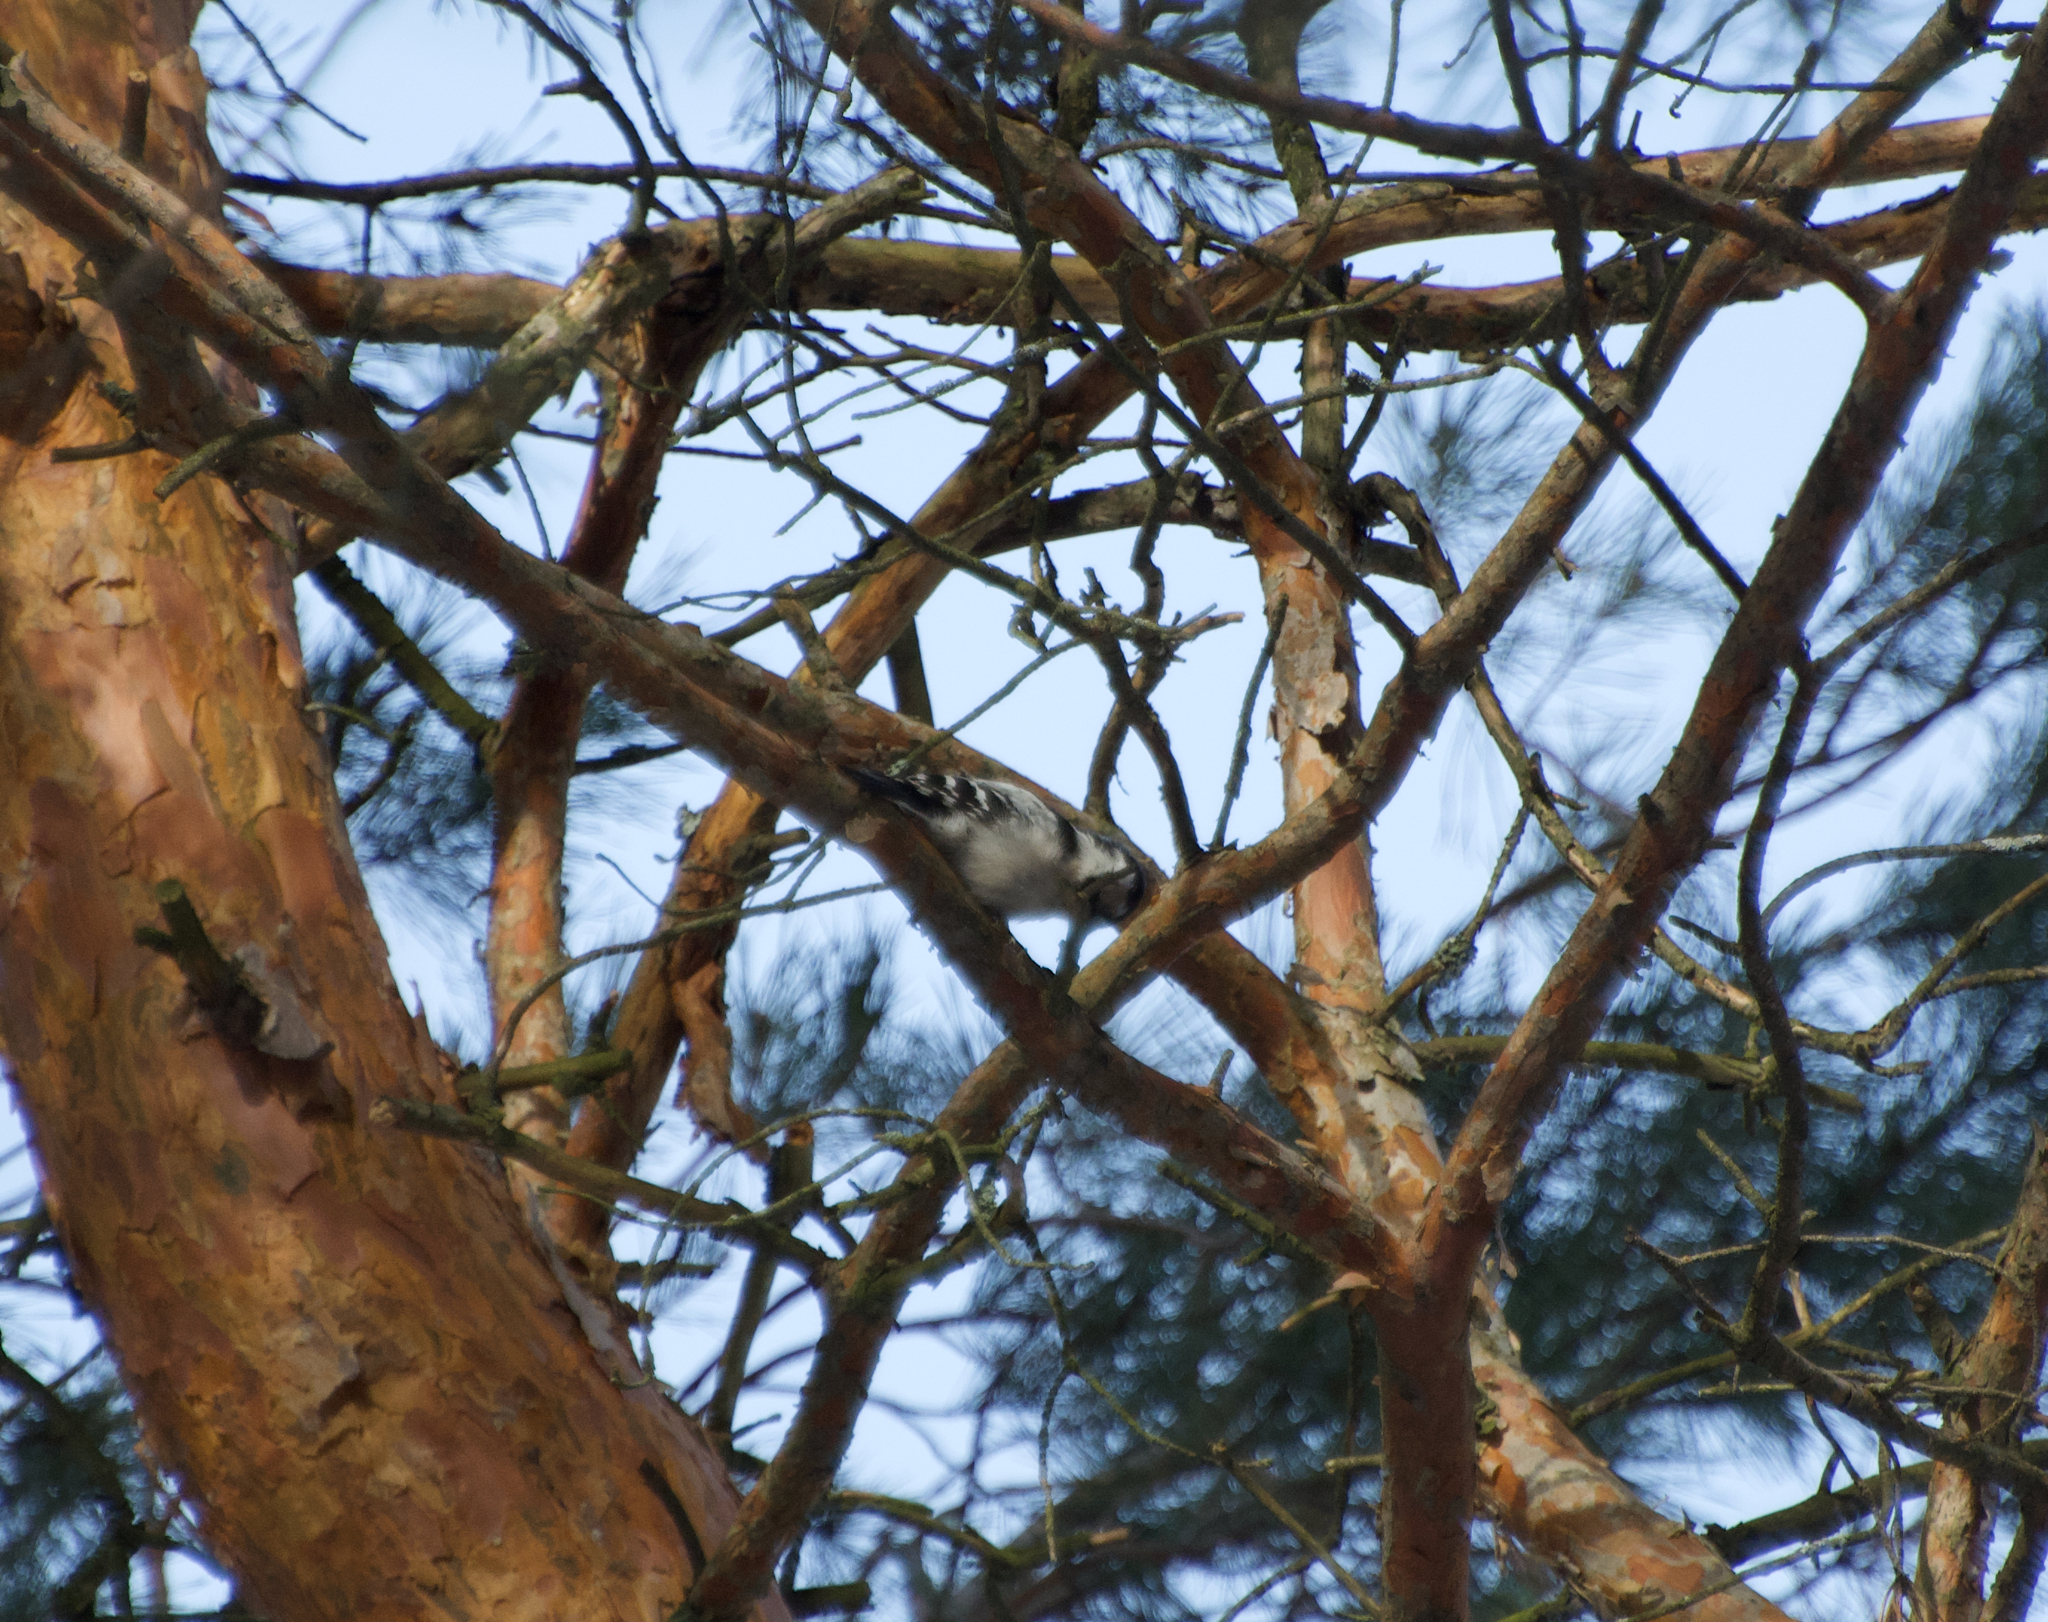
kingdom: Animalia
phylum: Chordata
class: Aves
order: Piciformes
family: Picidae
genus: Dryobates
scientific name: Dryobates minor
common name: Lesser spotted woodpecker
